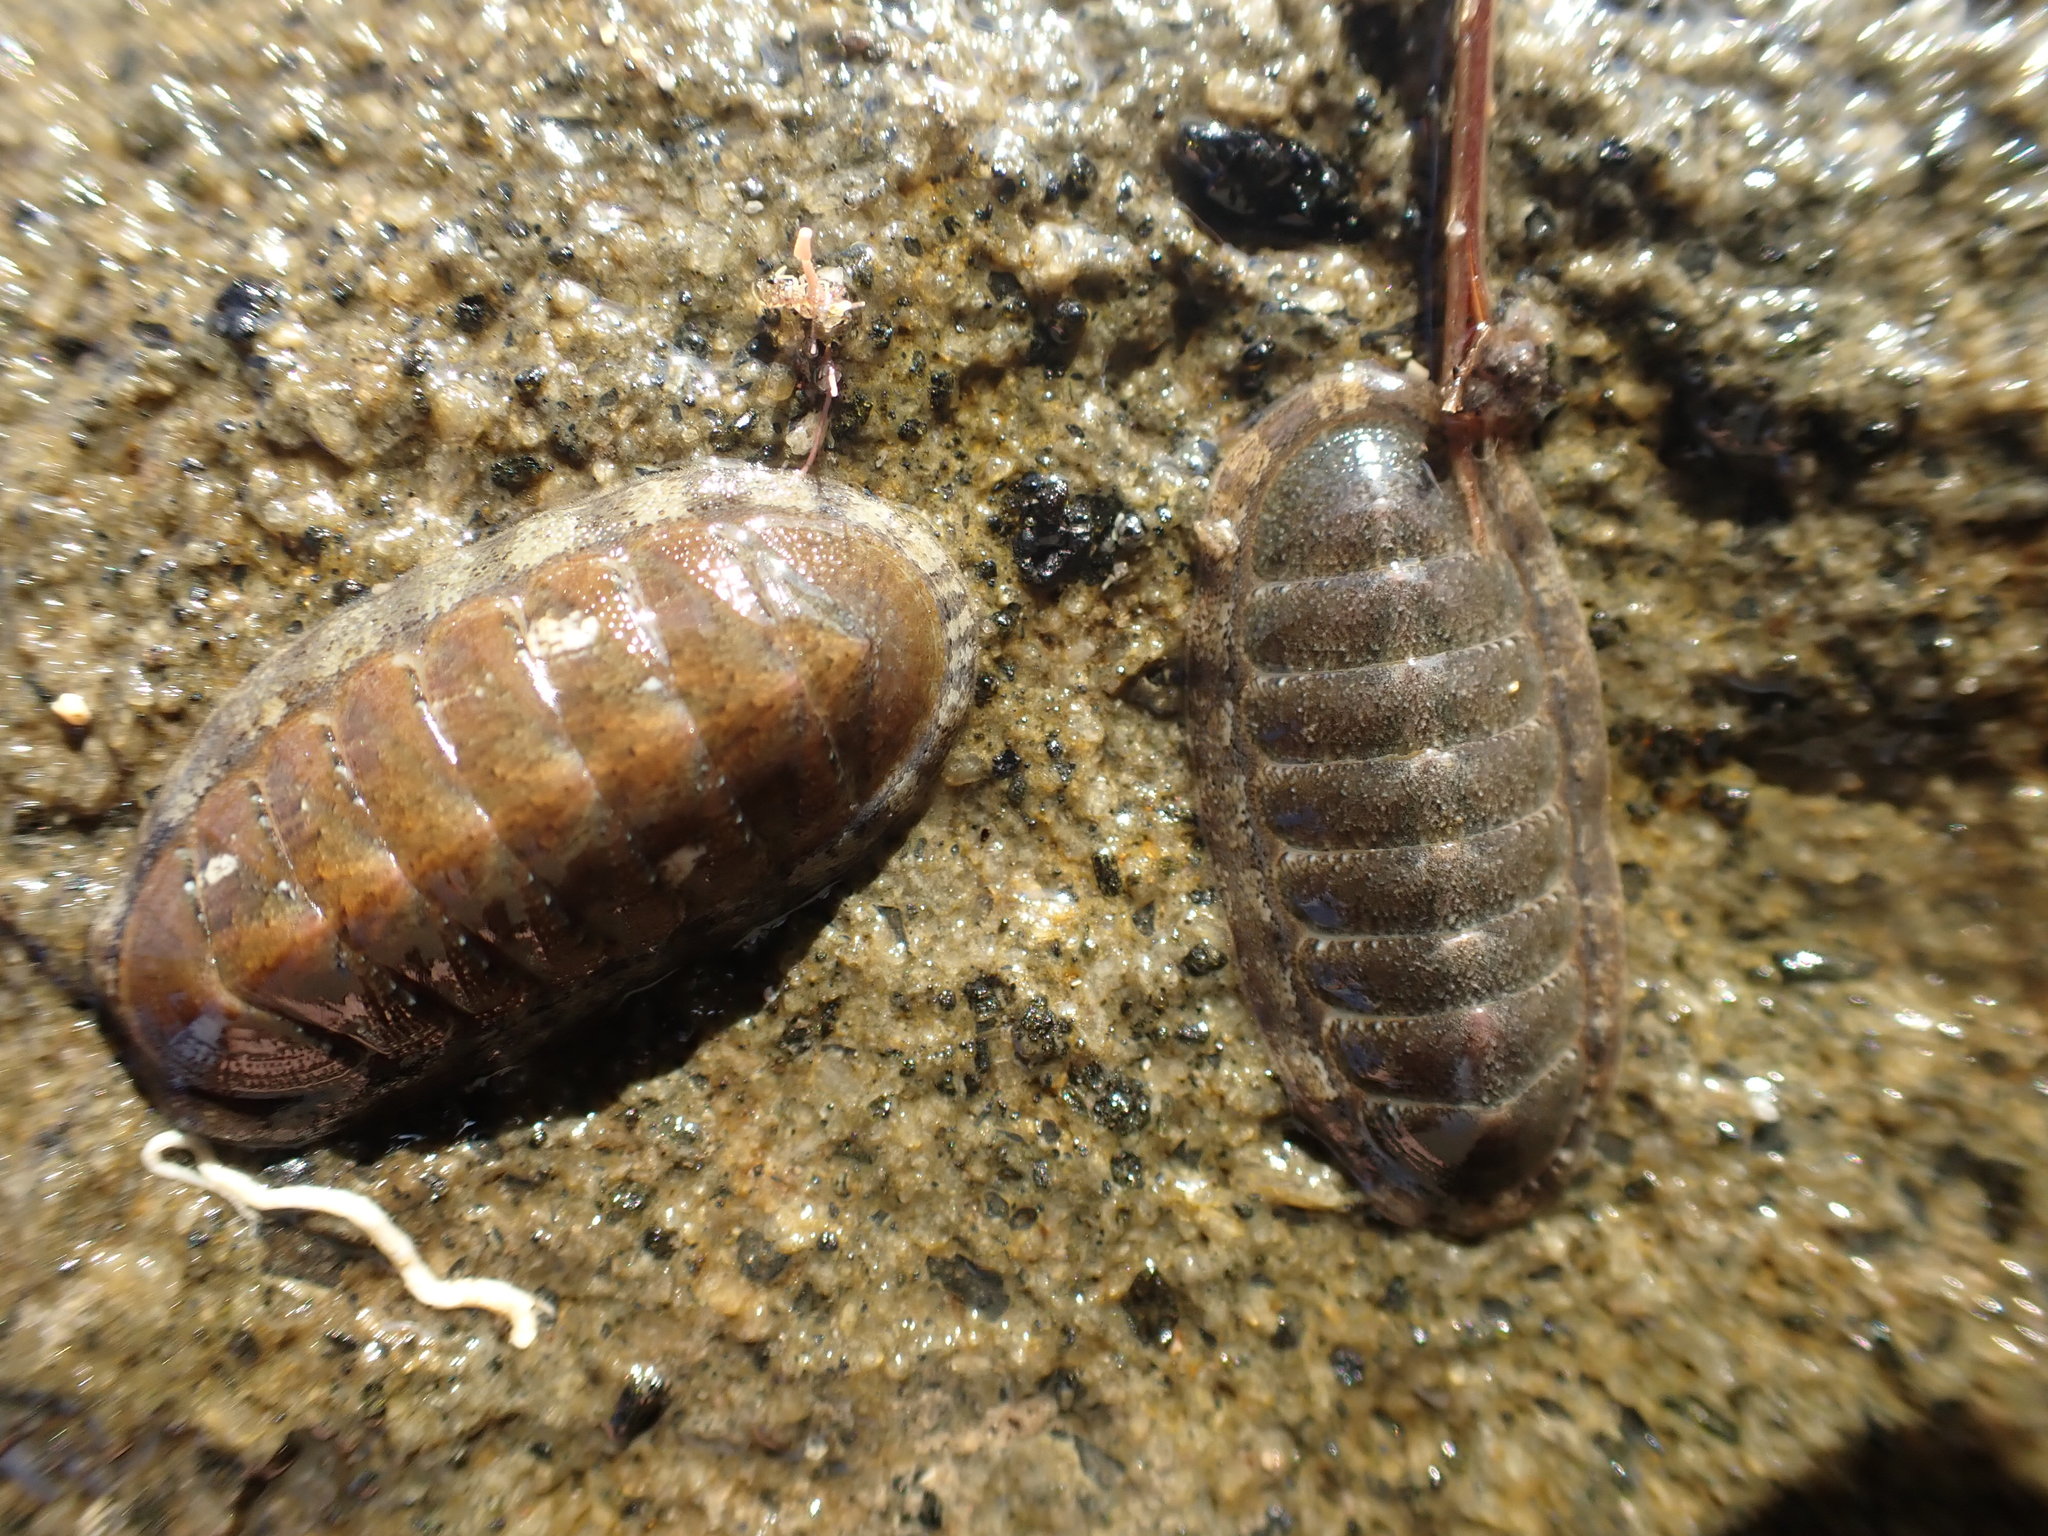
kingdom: Animalia
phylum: Mollusca
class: Polyplacophora
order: Chitonida
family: Ischnochitonidae
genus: Ischnochiton
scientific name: Ischnochiton maorianus
